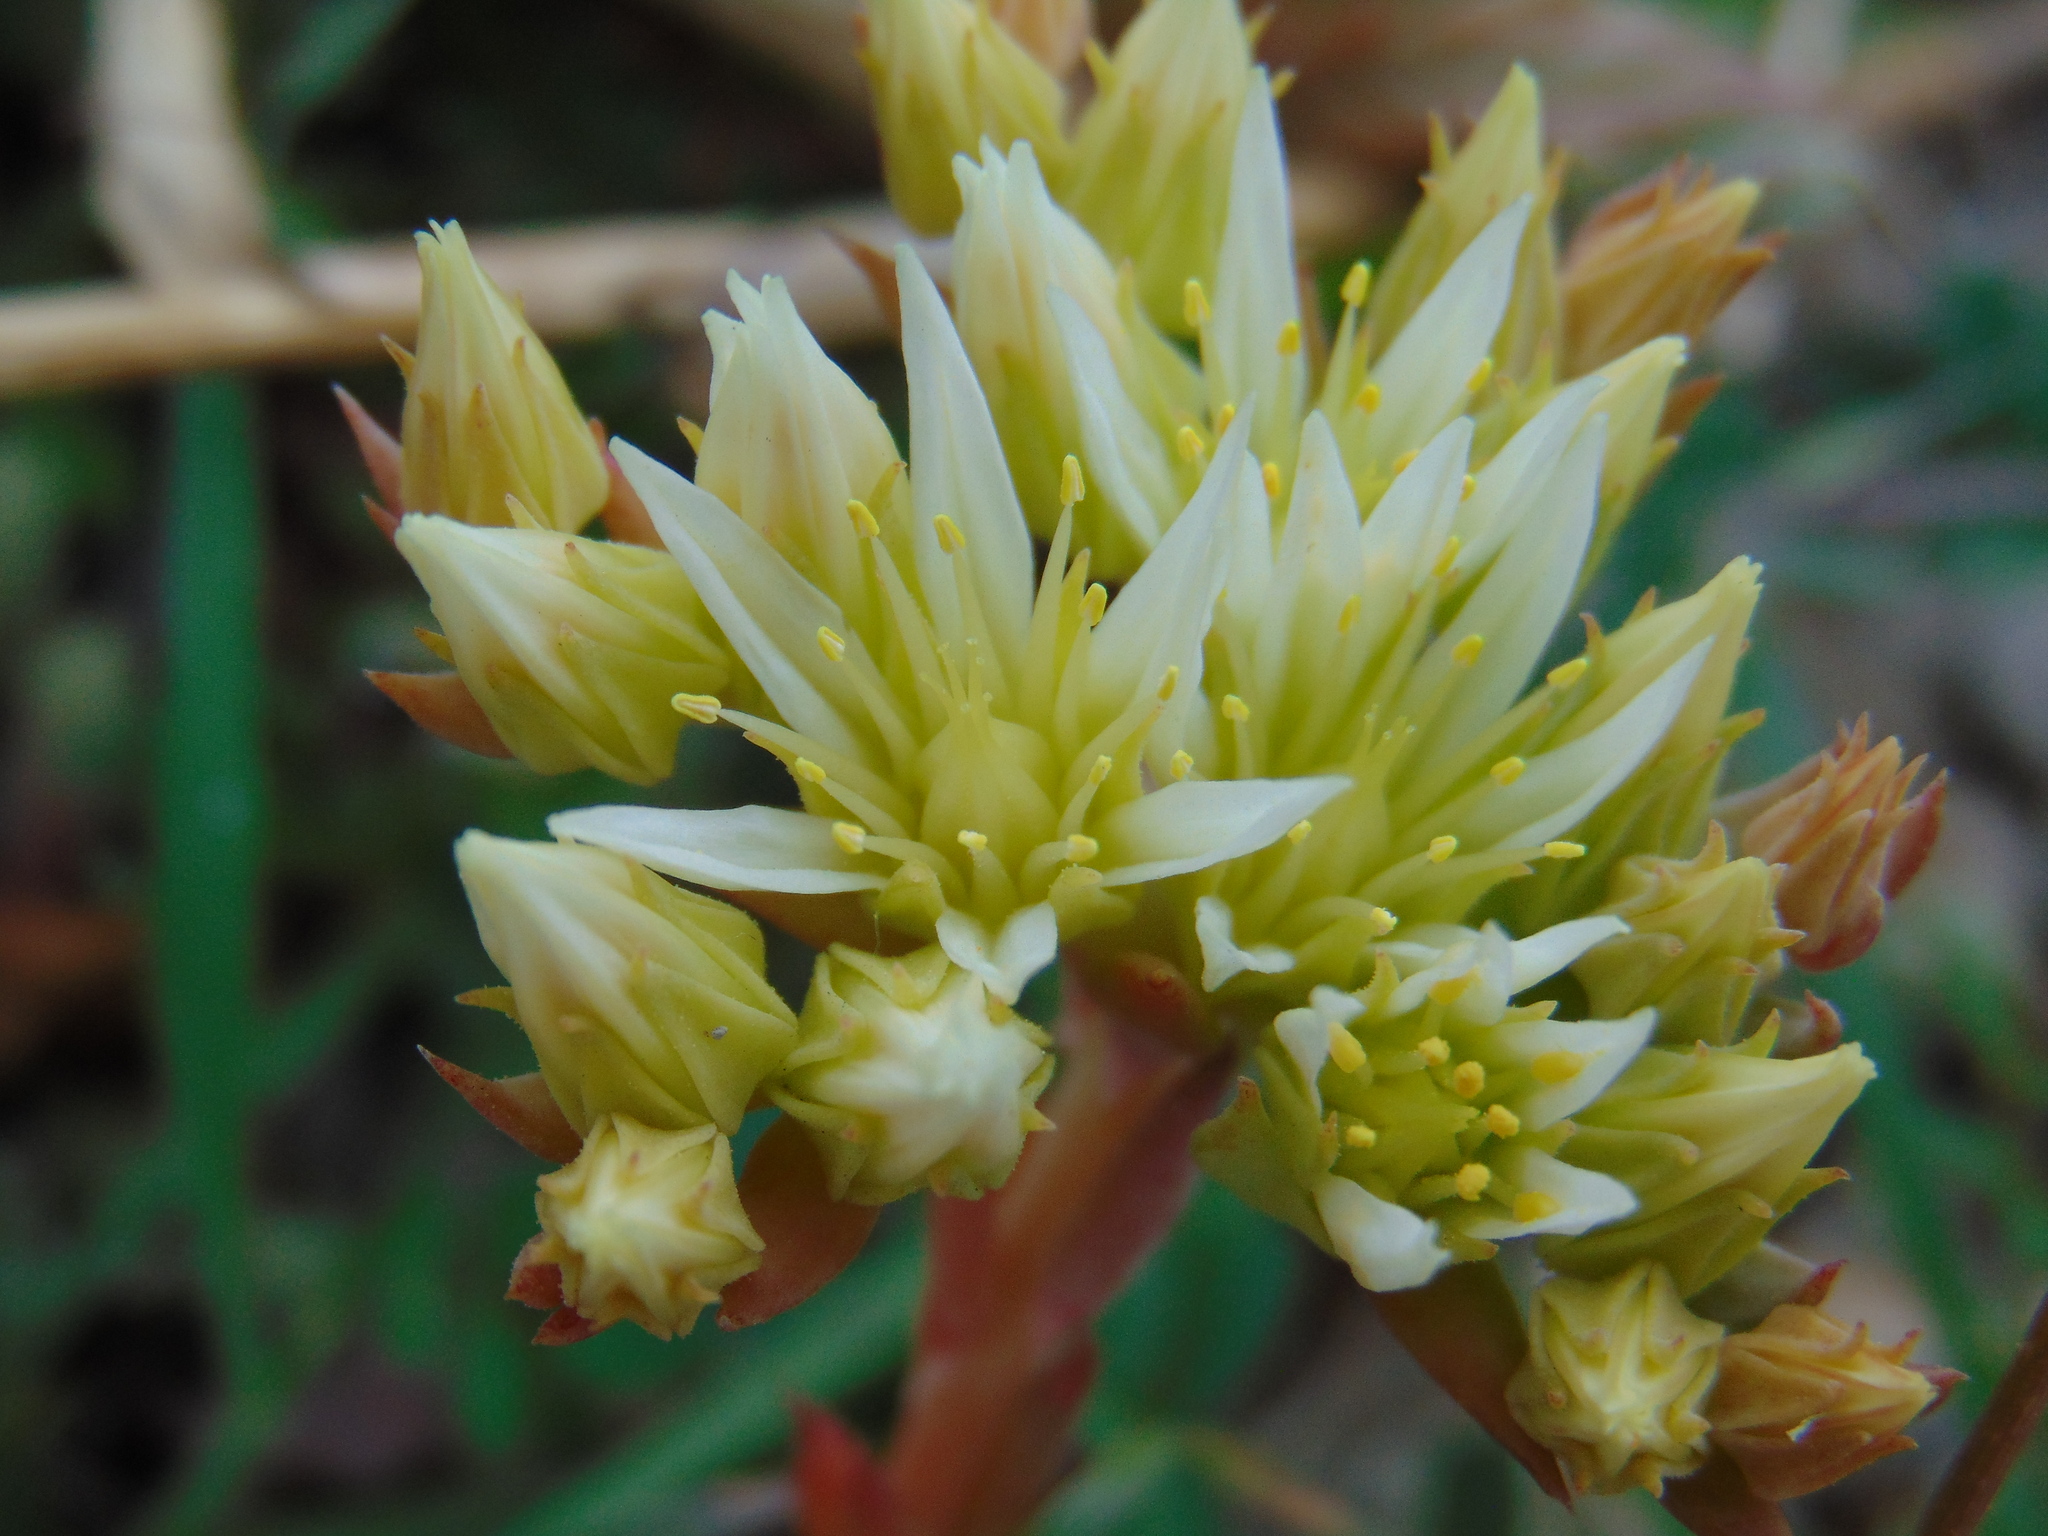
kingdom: Plantae
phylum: Tracheophyta
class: Magnoliopsida
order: Saxifragales
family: Crassulaceae
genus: Petrosedum
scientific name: Petrosedum ochroleucum
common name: European stonecrop
